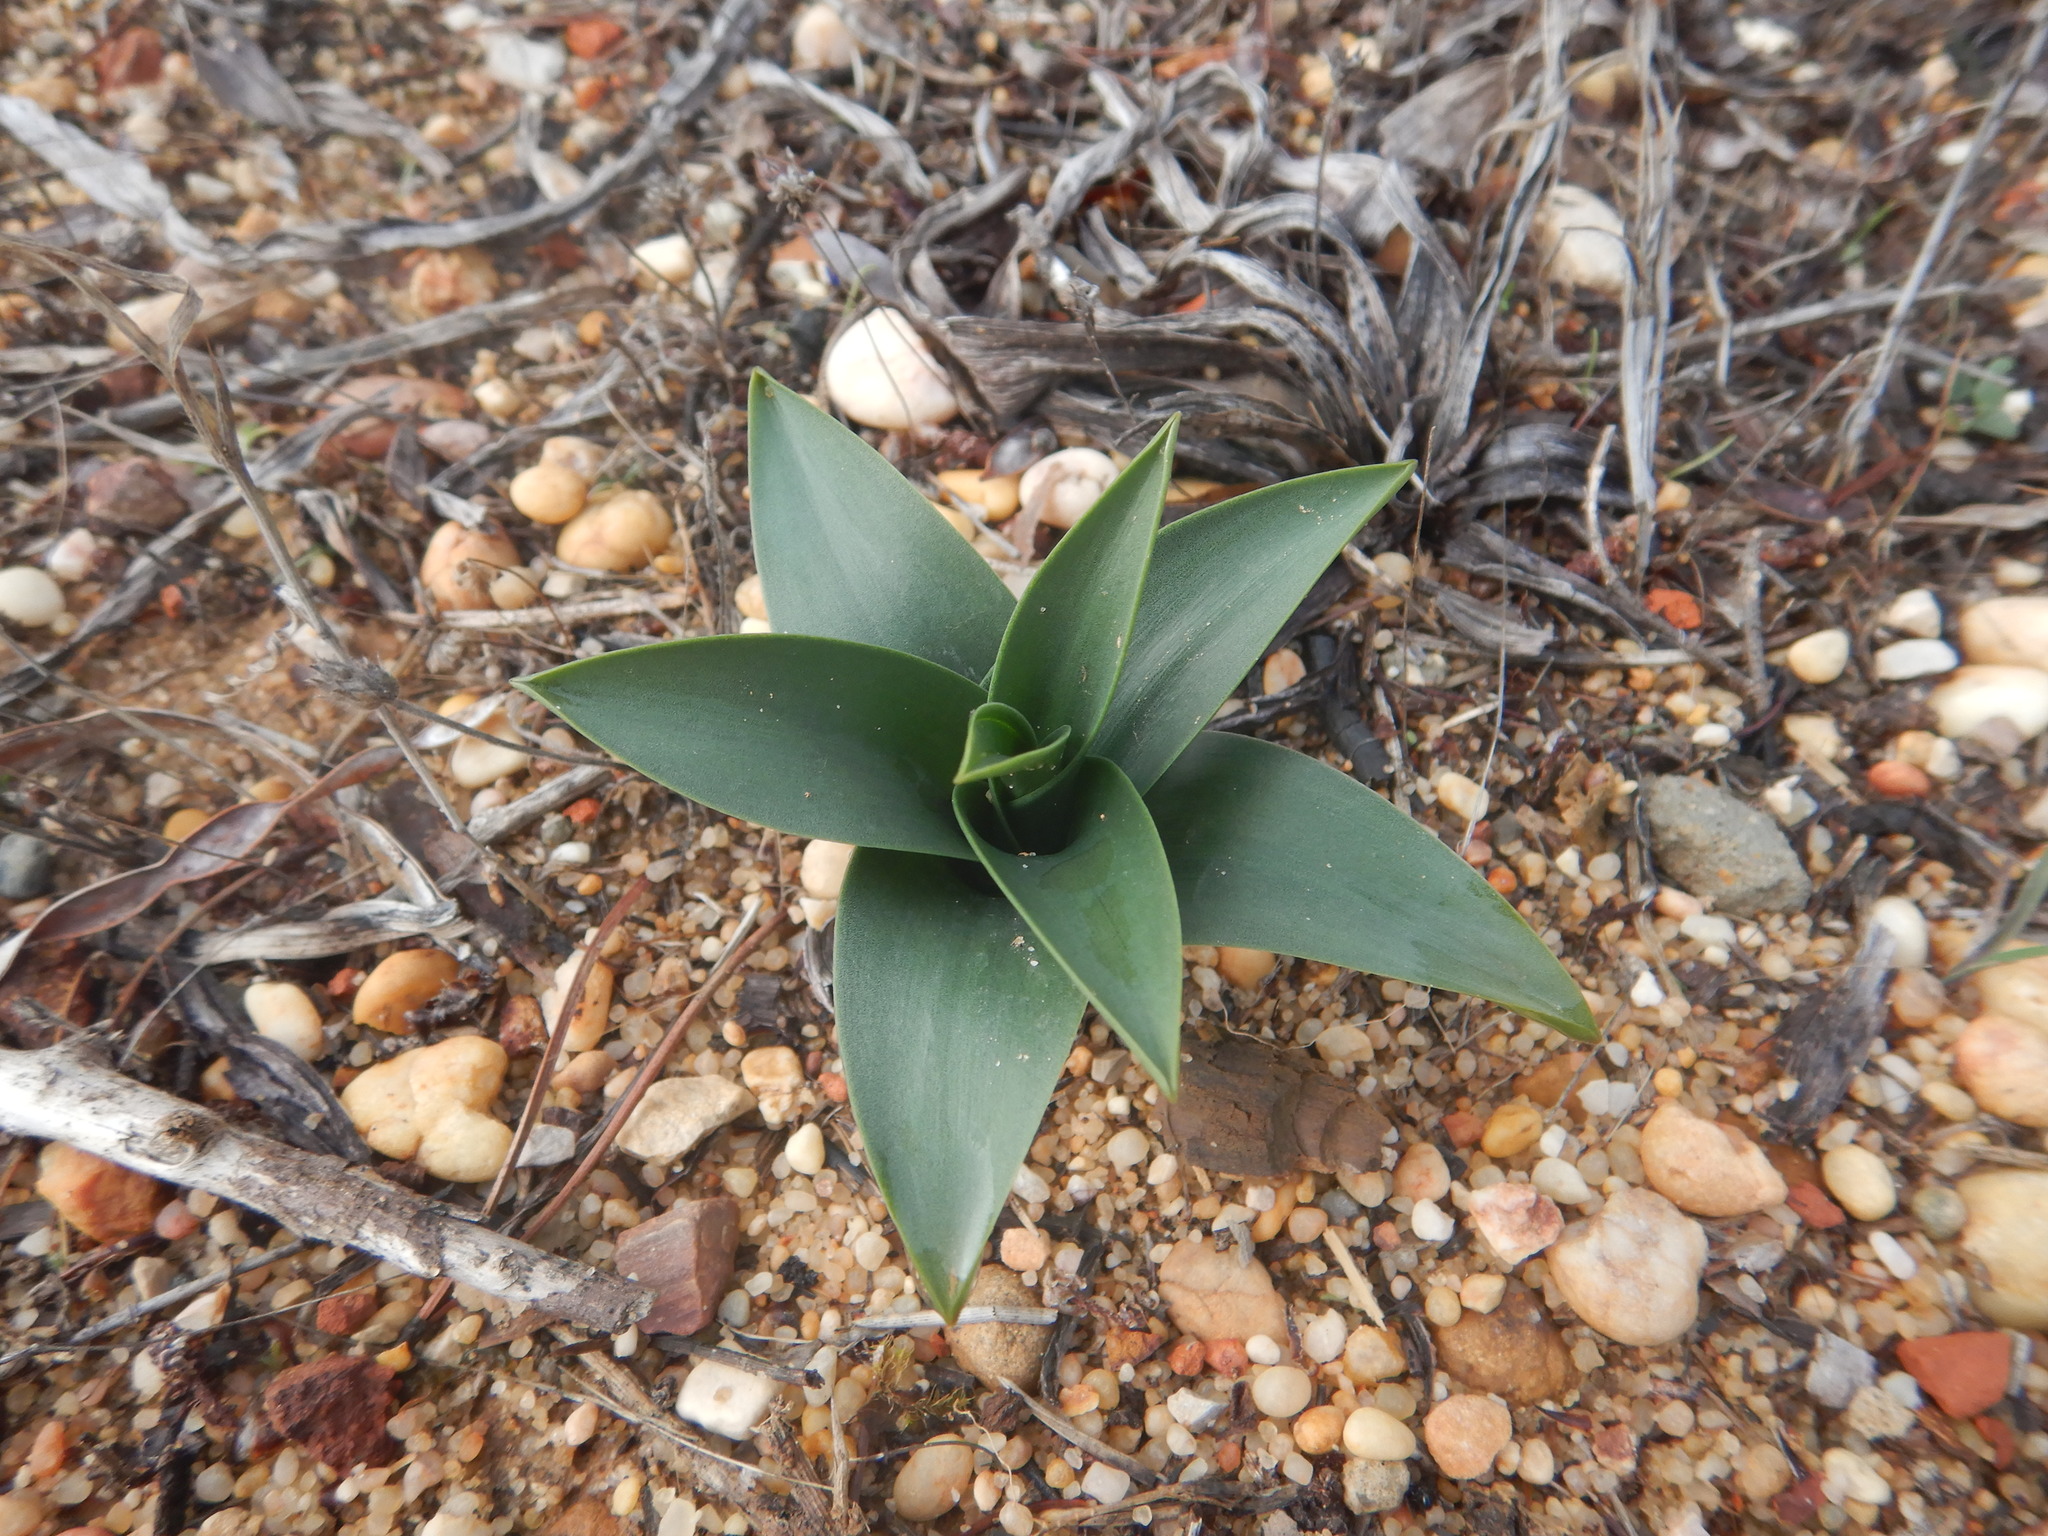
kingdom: Plantae
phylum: Tracheophyta
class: Liliopsida
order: Asparagales
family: Asparagaceae
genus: Drimia
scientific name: Drimia maritima
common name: Maritime squill
